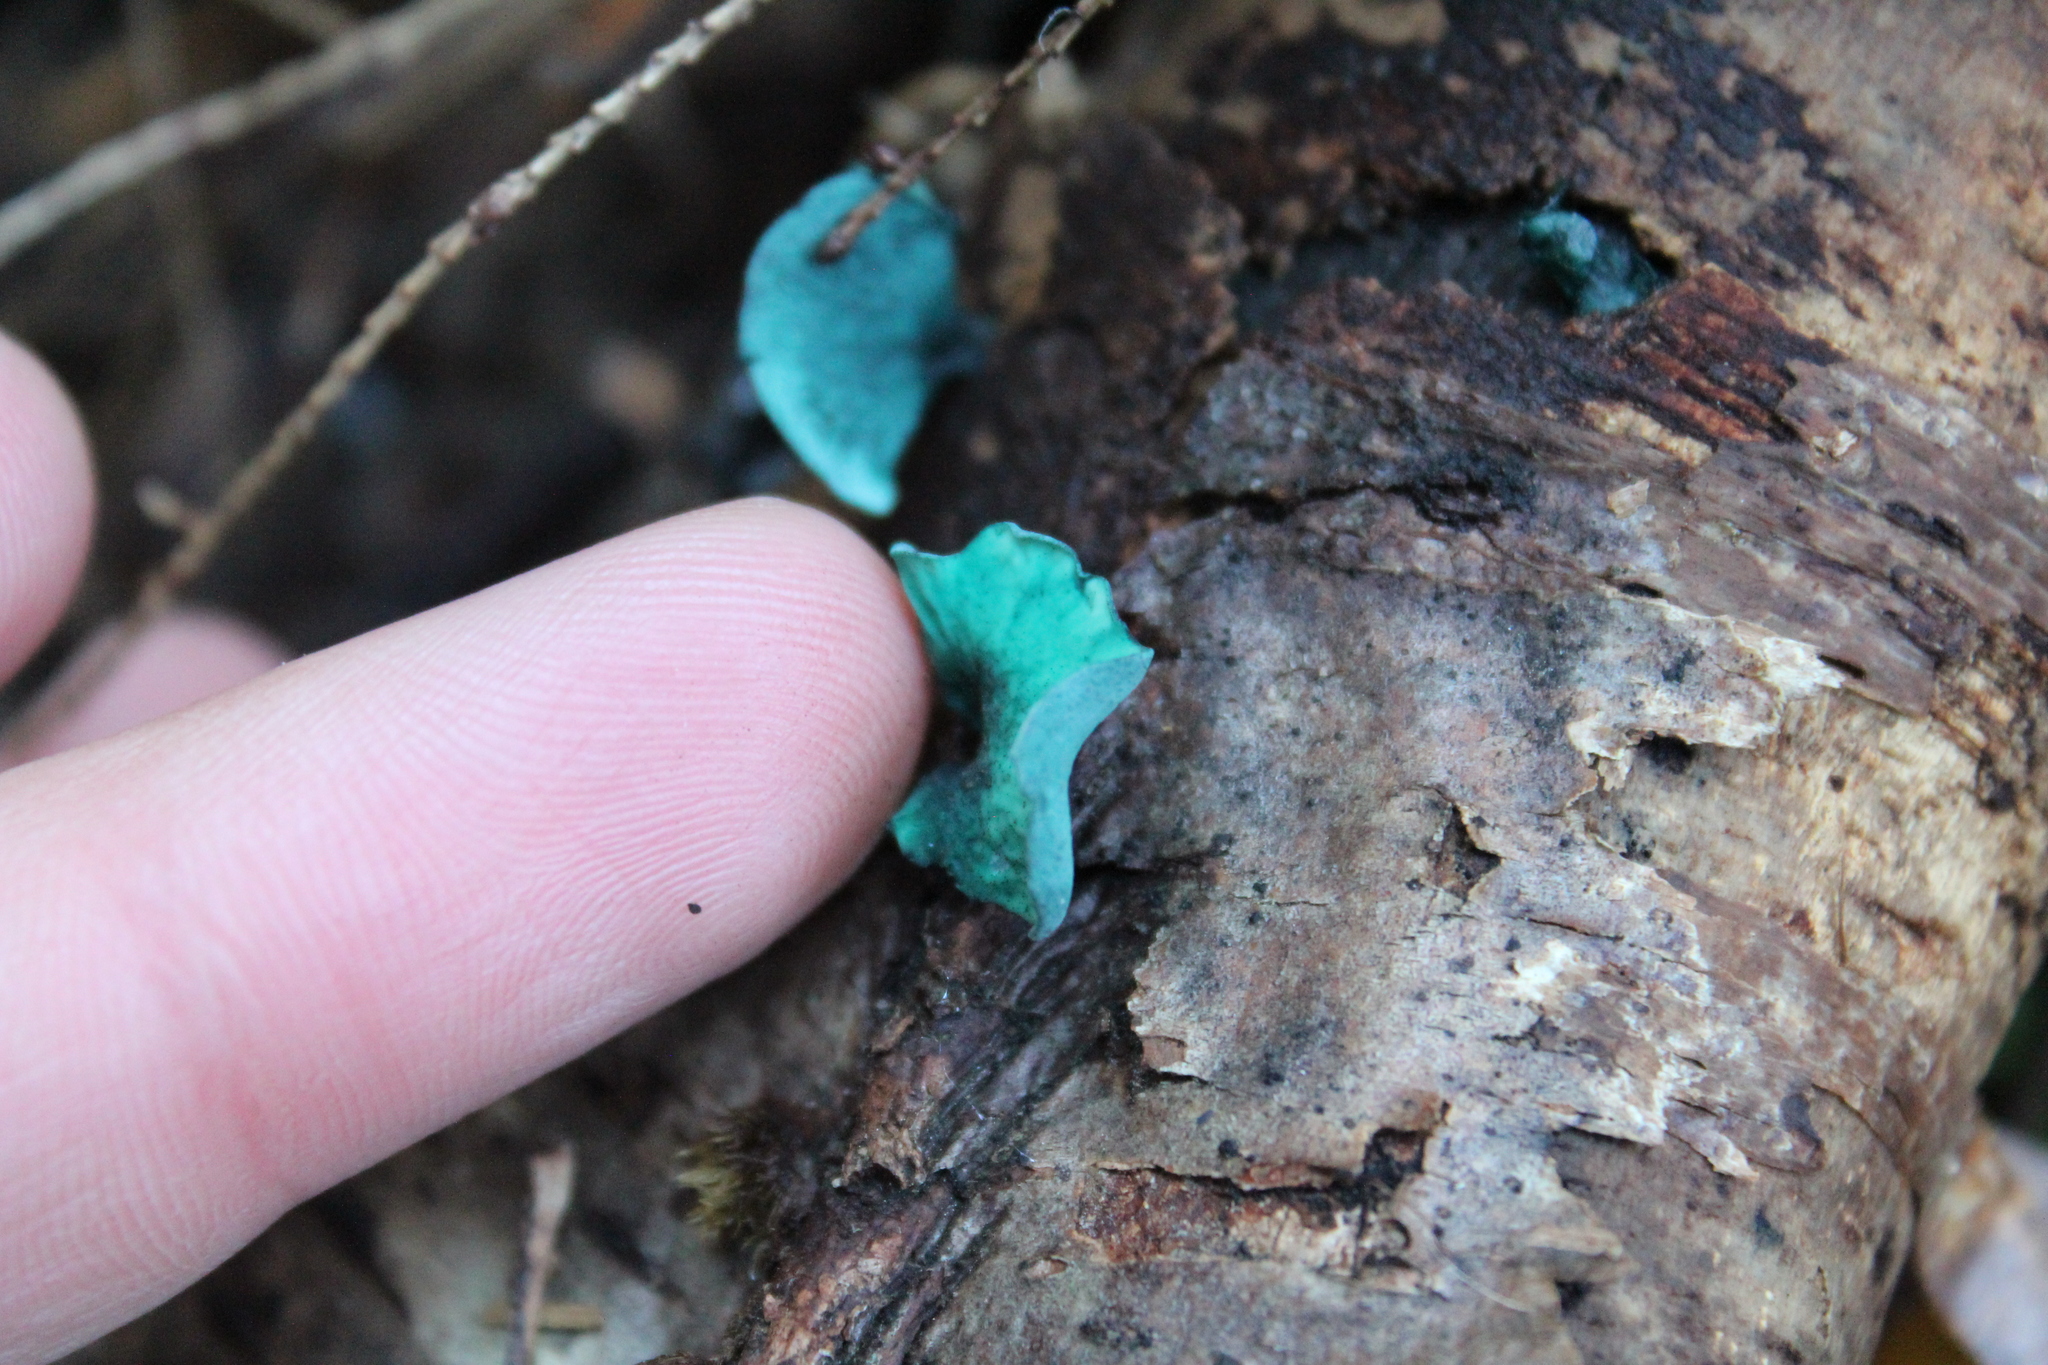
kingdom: Fungi
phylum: Ascomycota
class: Leotiomycetes
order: Helotiales
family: Chlorociboriaceae
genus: Chlorociboria
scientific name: Chlorociboria
